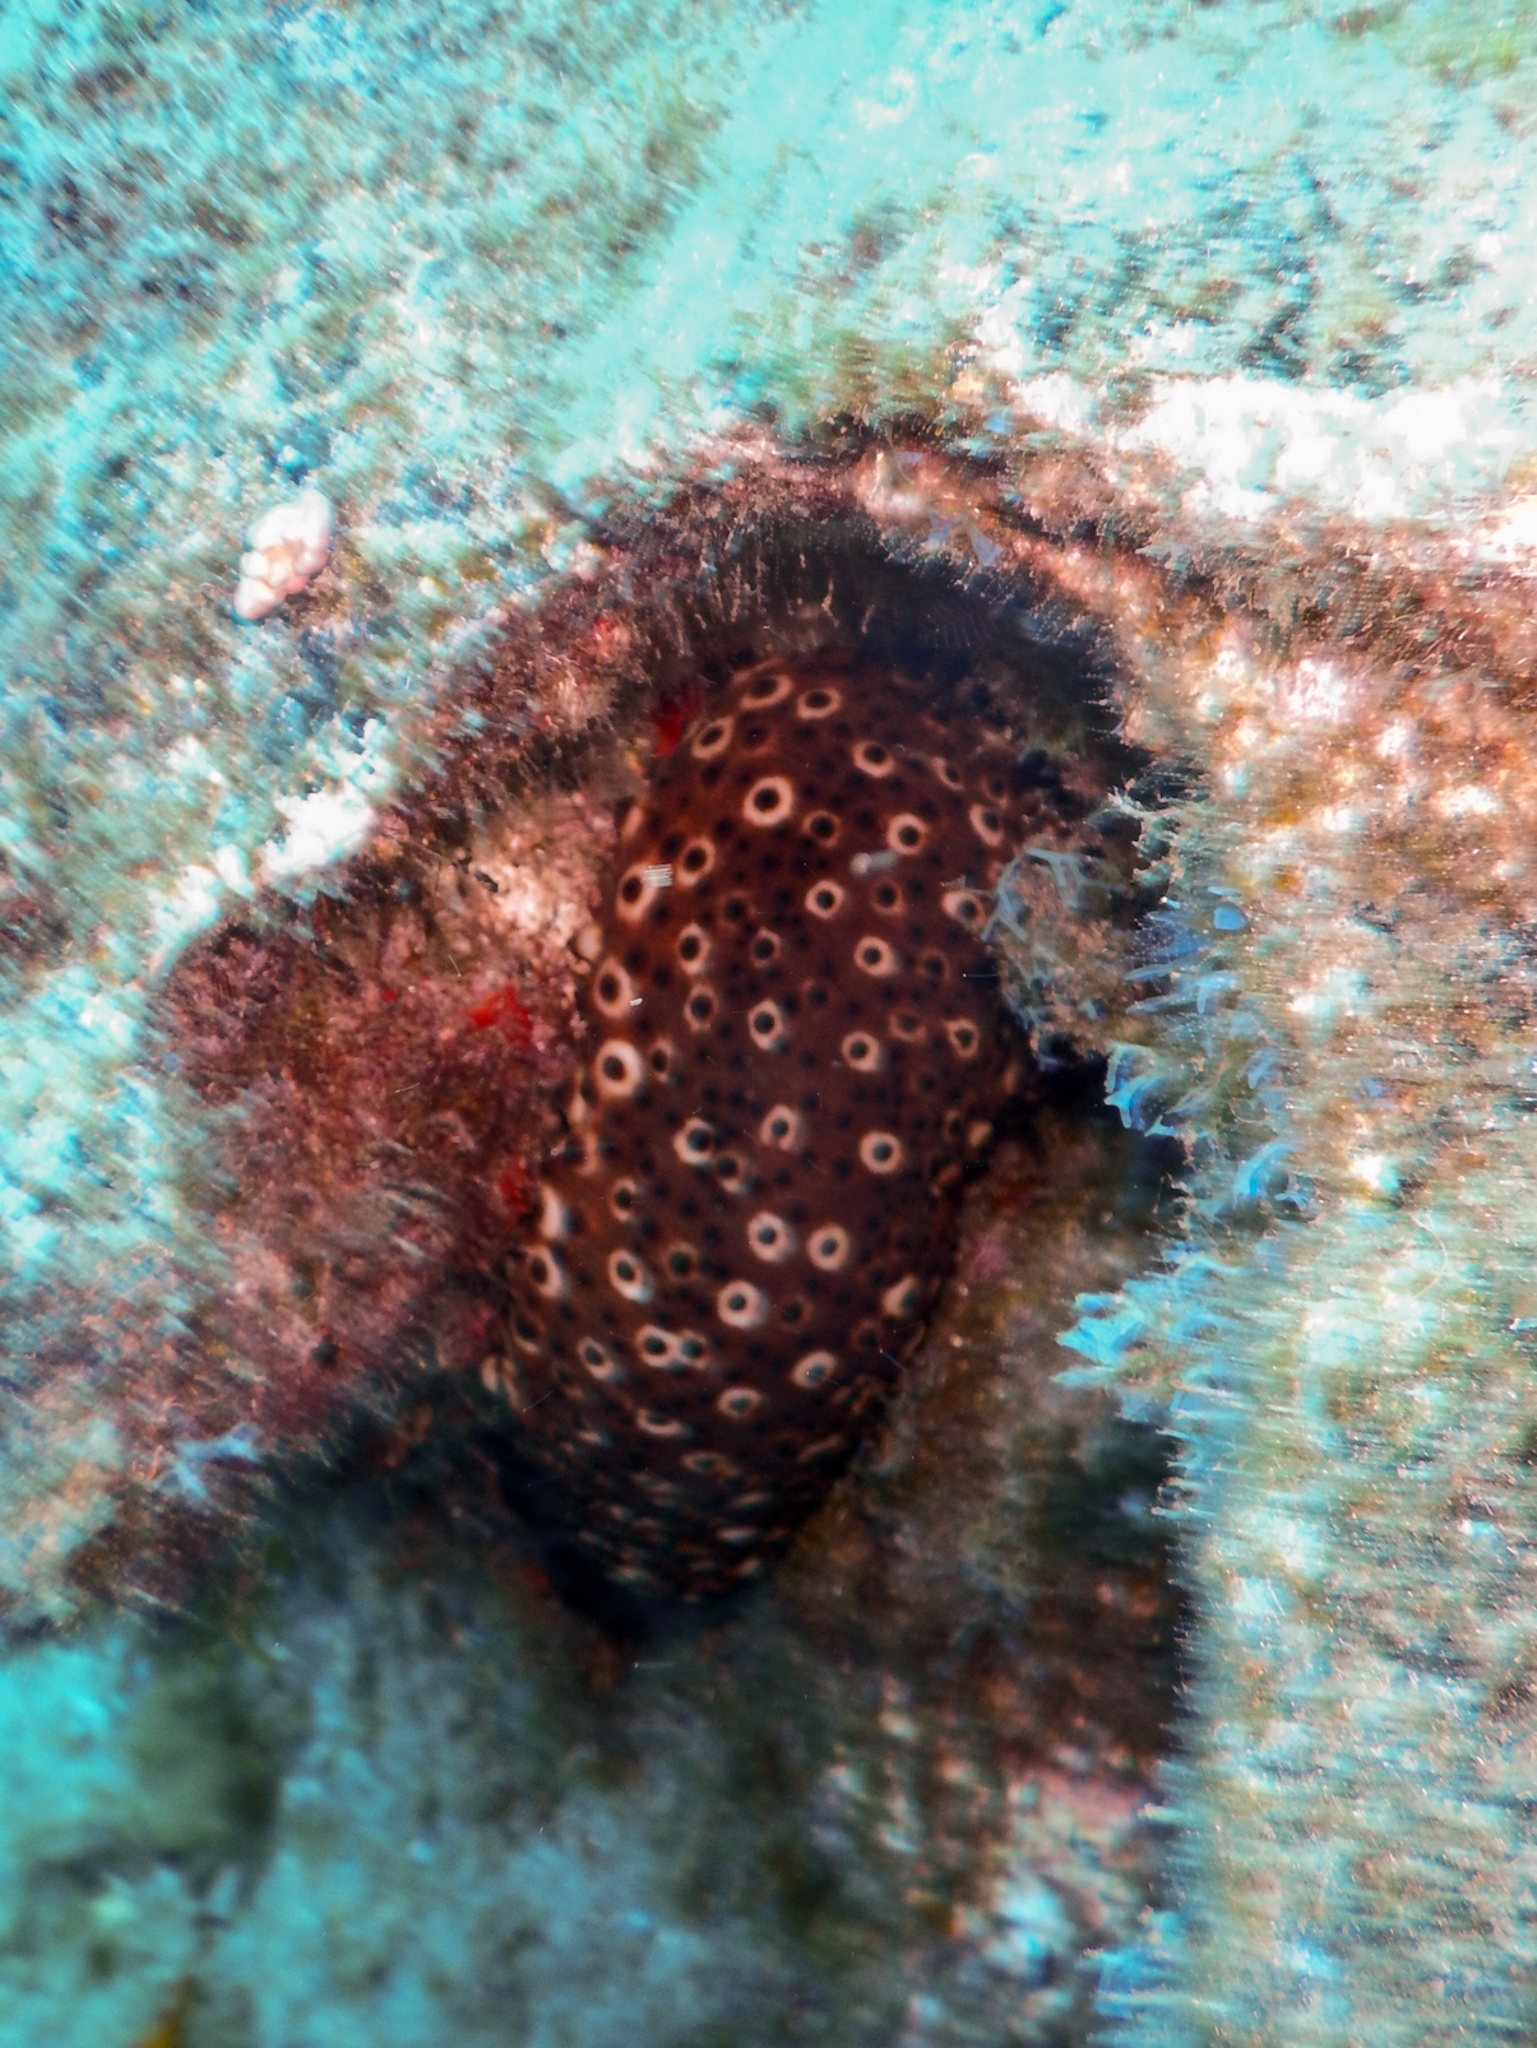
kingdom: Animalia
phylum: Echinodermata
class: Holothuroidea
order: Holothuriida
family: Holothuriidae
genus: Holothuria
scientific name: Holothuria sanctori
